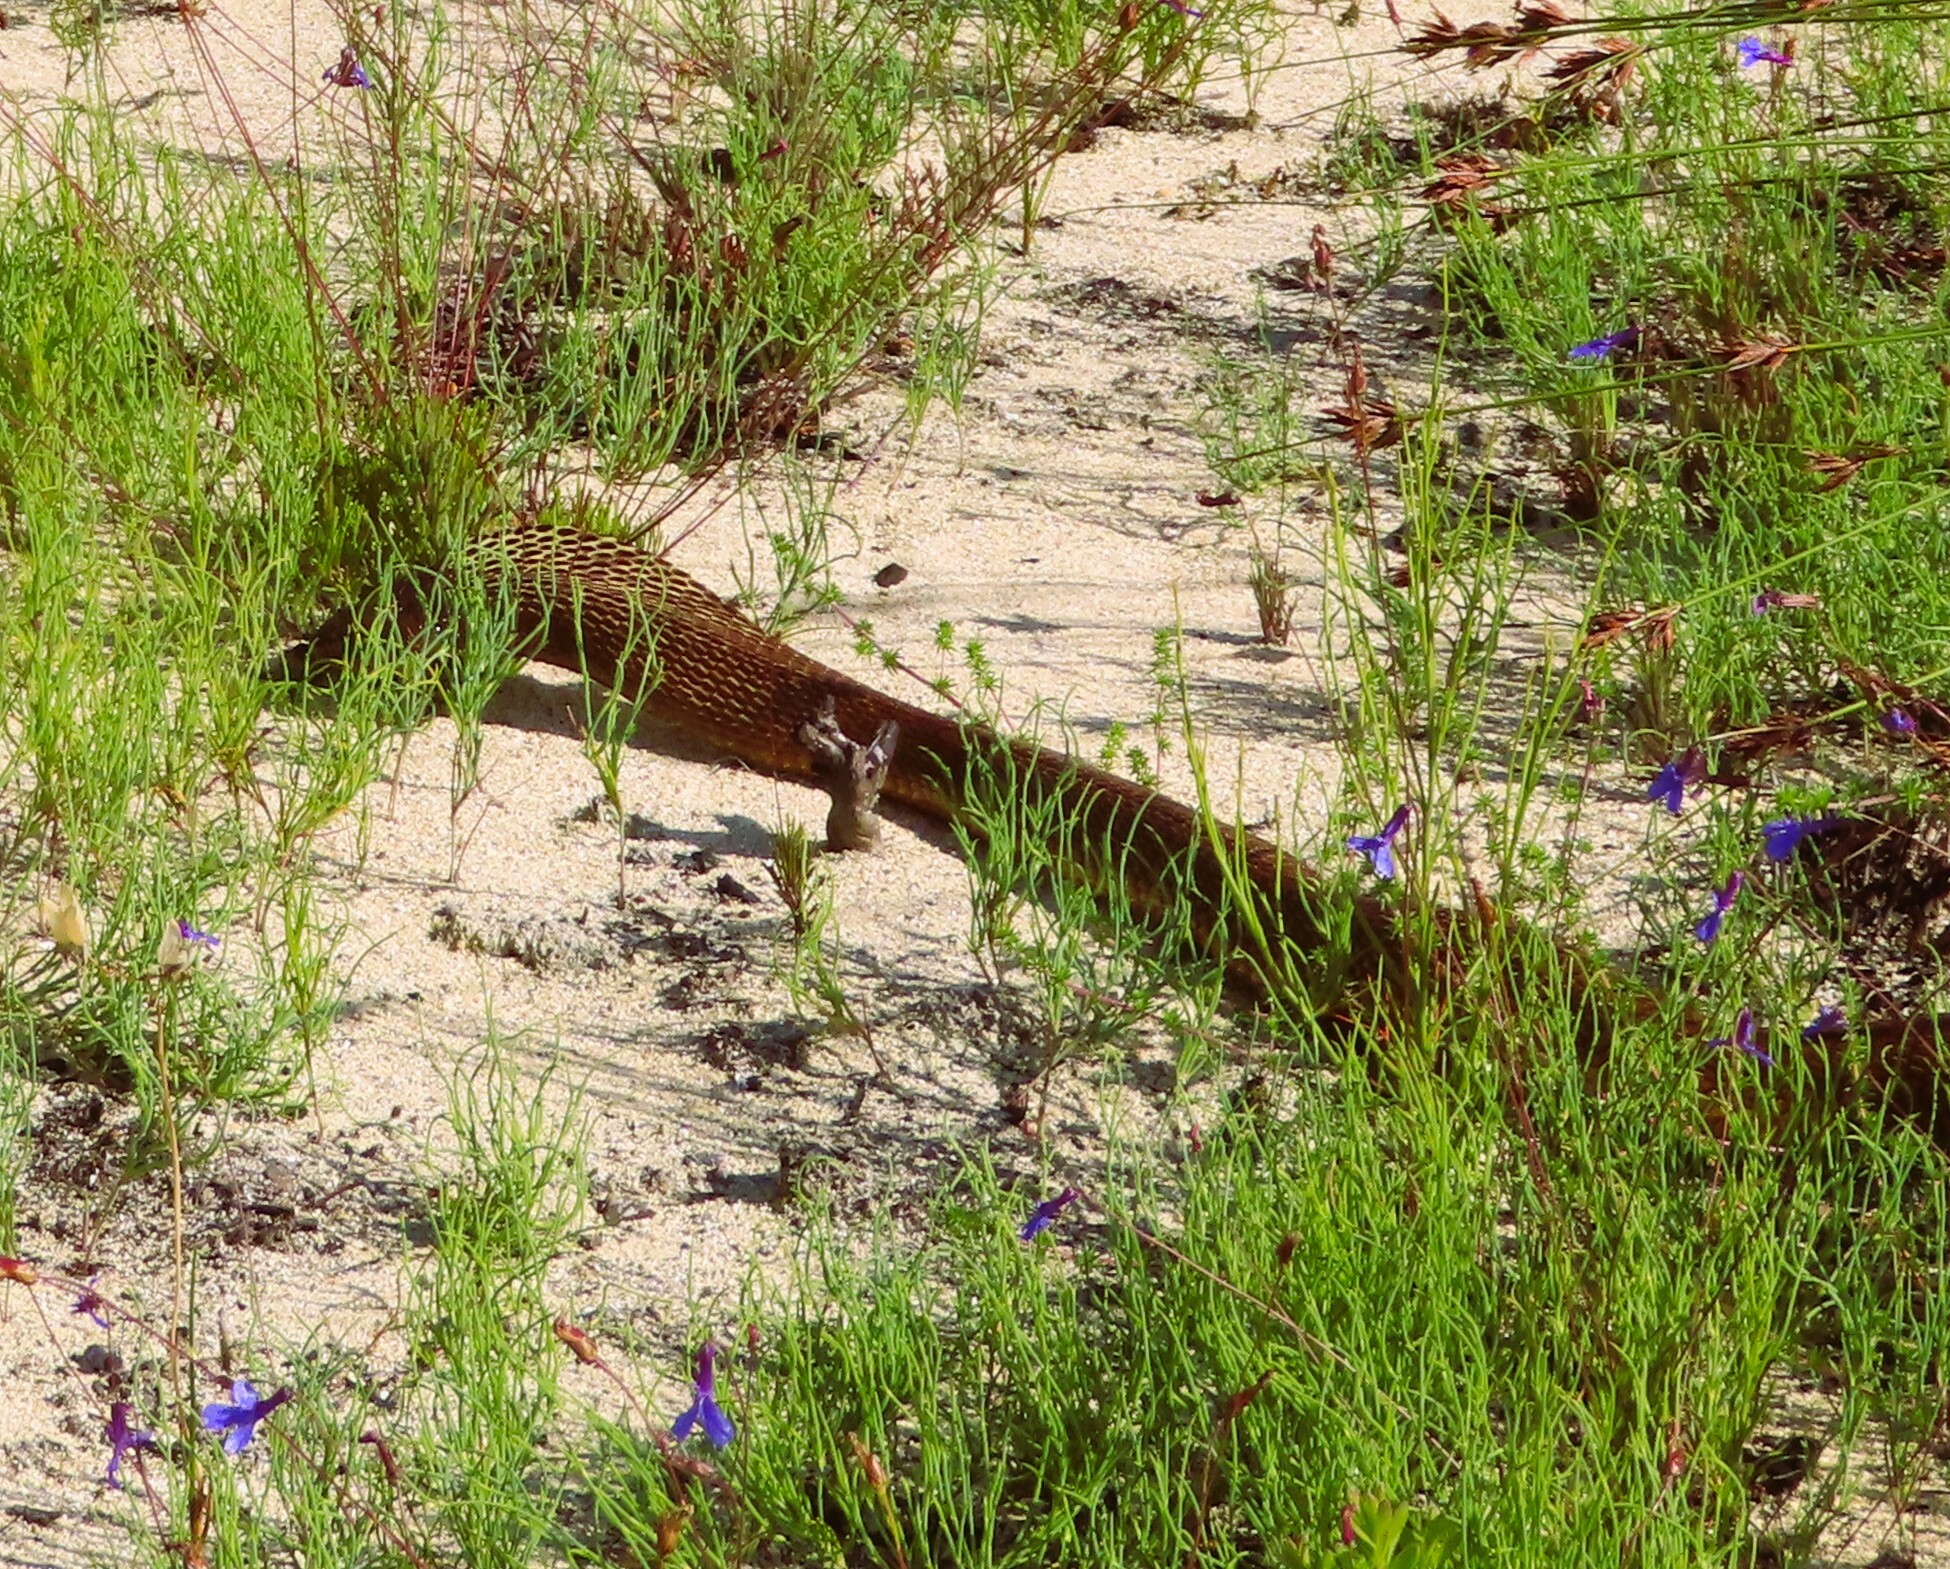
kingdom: Animalia
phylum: Chordata
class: Squamata
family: Elapidae
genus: Naja
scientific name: Naja nivea
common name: Cape cobra
